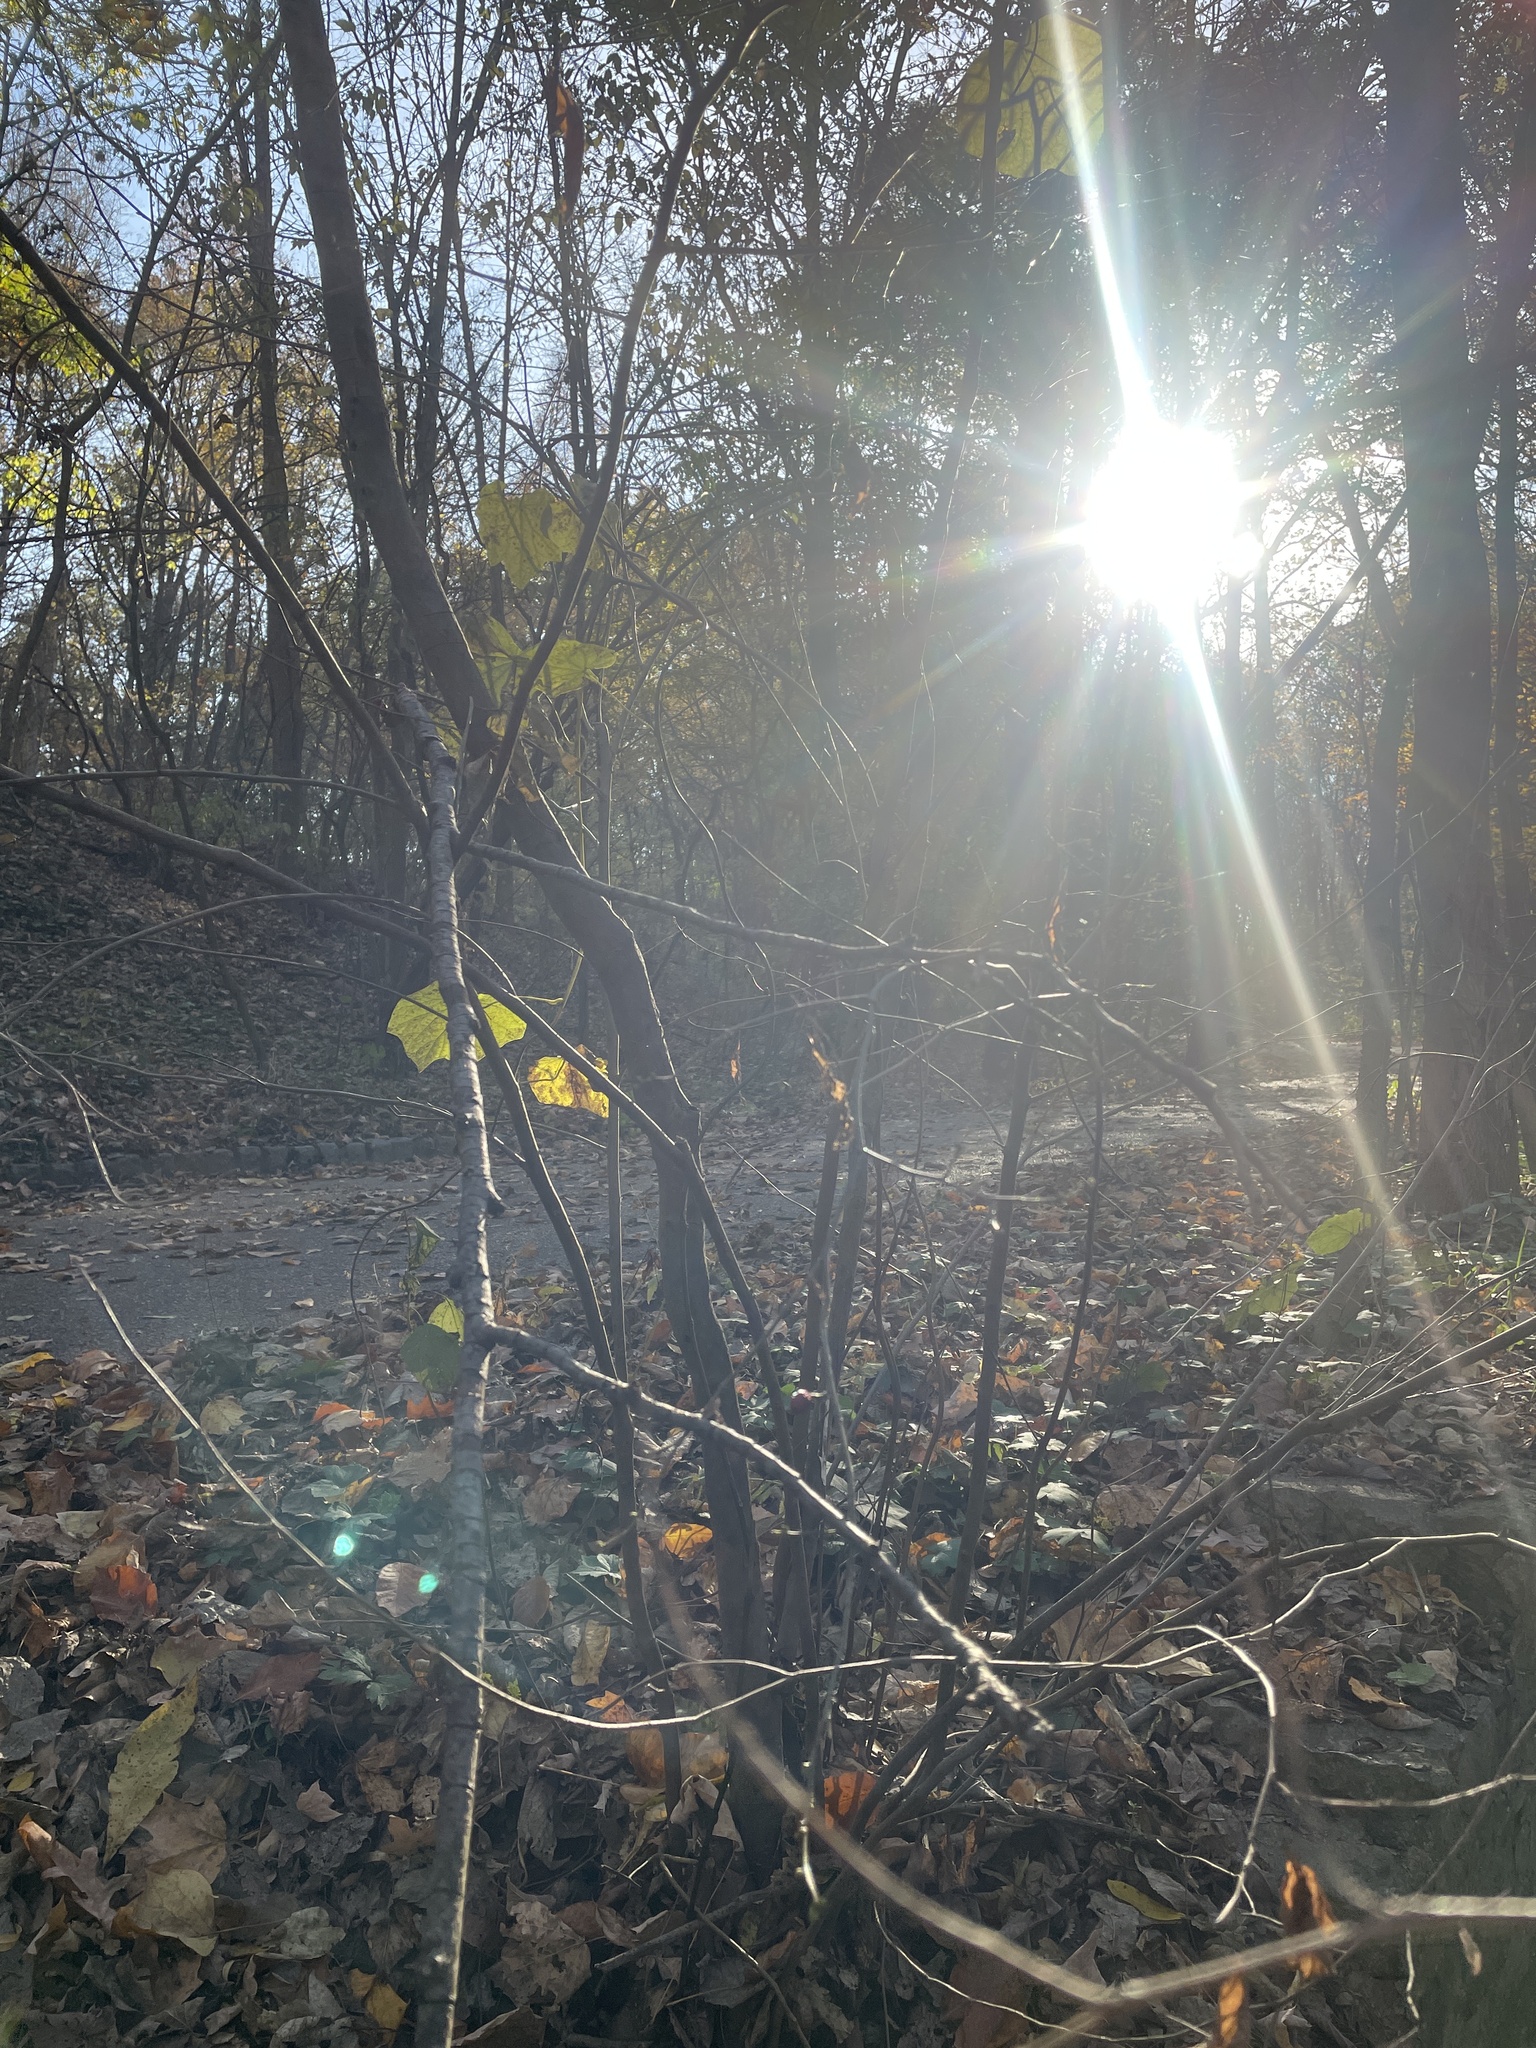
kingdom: Plantae
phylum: Tracheophyta
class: Magnoliopsida
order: Laurales
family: Lauraceae
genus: Lindera
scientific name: Lindera benzoin
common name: Spicebush
